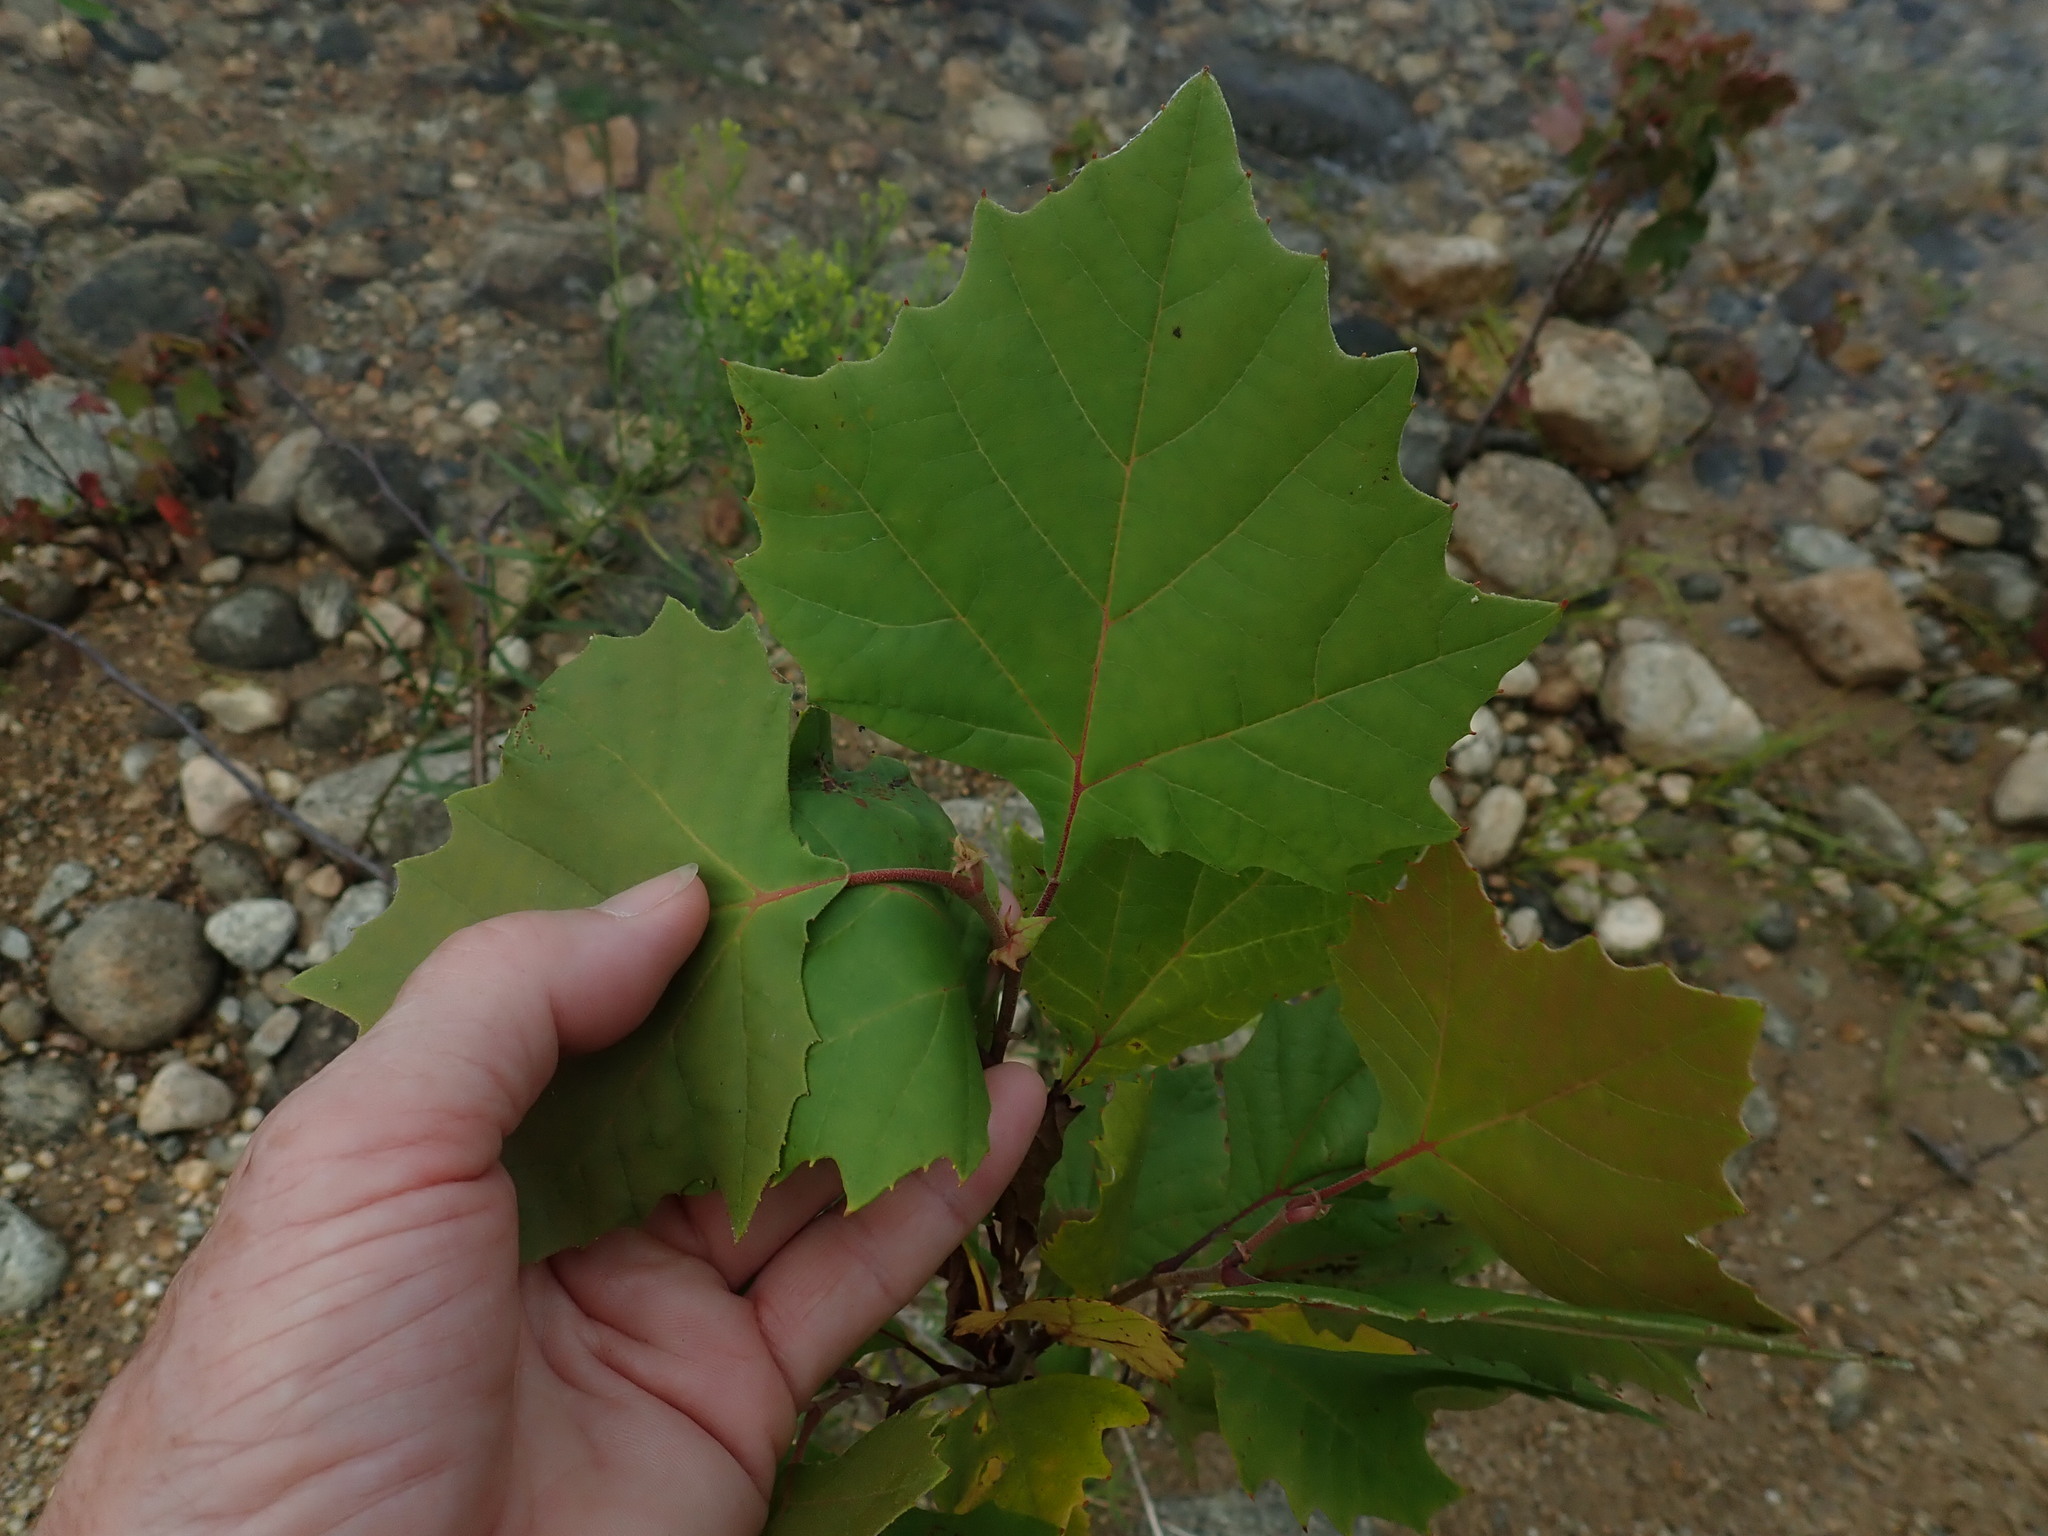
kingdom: Plantae
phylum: Tracheophyta
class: Magnoliopsida
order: Proteales
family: Platanaceae
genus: Platanus
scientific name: Platanus occidentalis
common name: American sycamore
